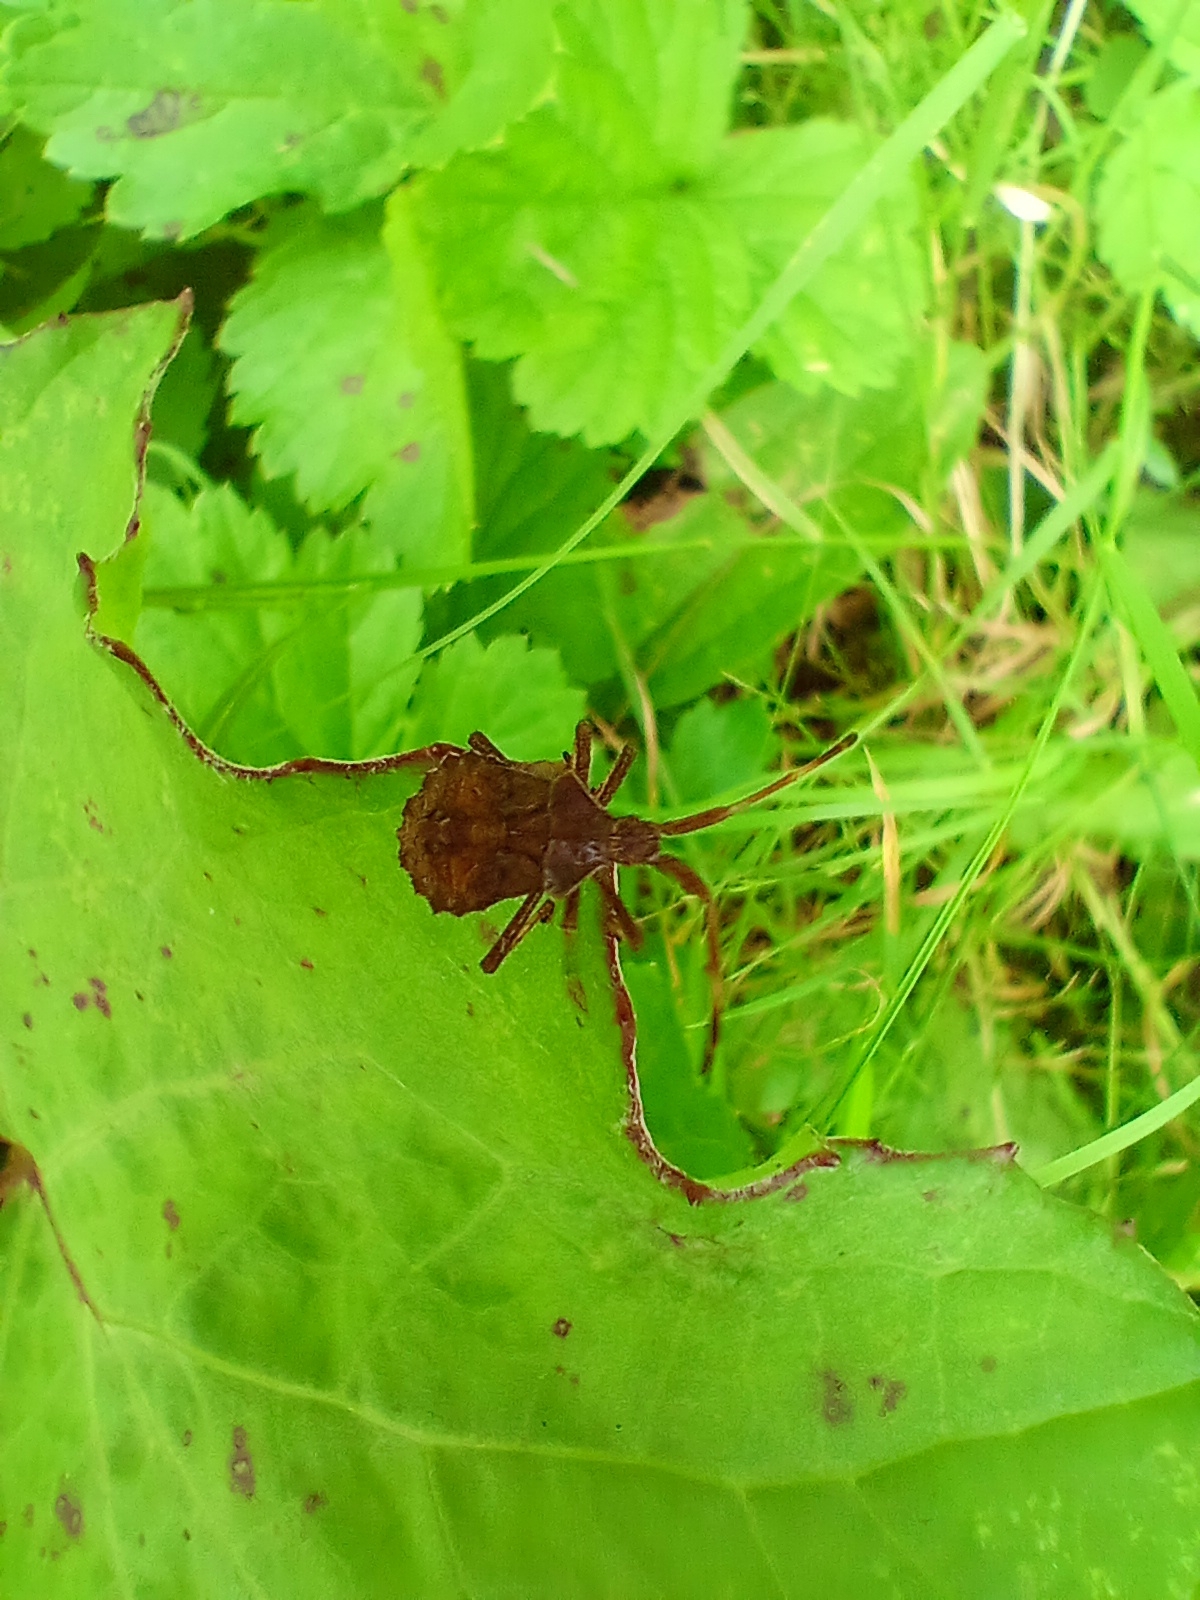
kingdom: Animalia
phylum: Arthropoda
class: Insecta
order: Hemiptera
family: Coreidae
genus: Coreus
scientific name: Coreus marginatus
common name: Dock bug
